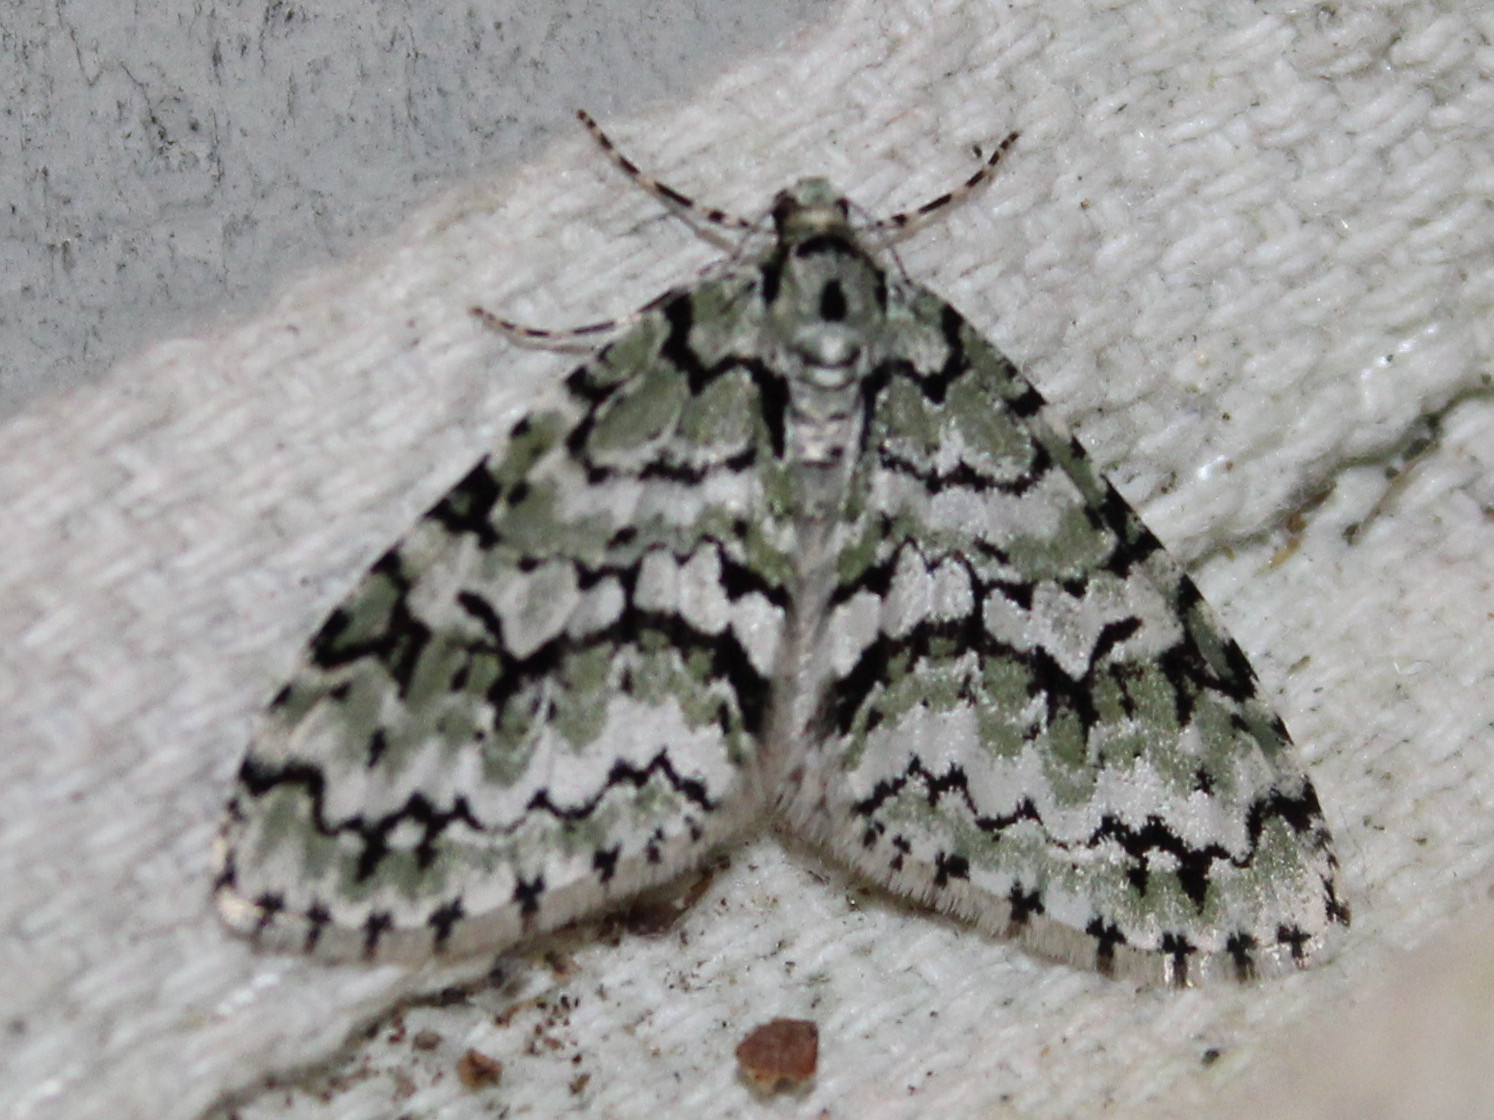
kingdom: Animalia
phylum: Arthropoda
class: Insecta
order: Lepidoptera
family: Geometridae
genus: Cladara
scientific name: Cladara atroliturata
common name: Scribbler
